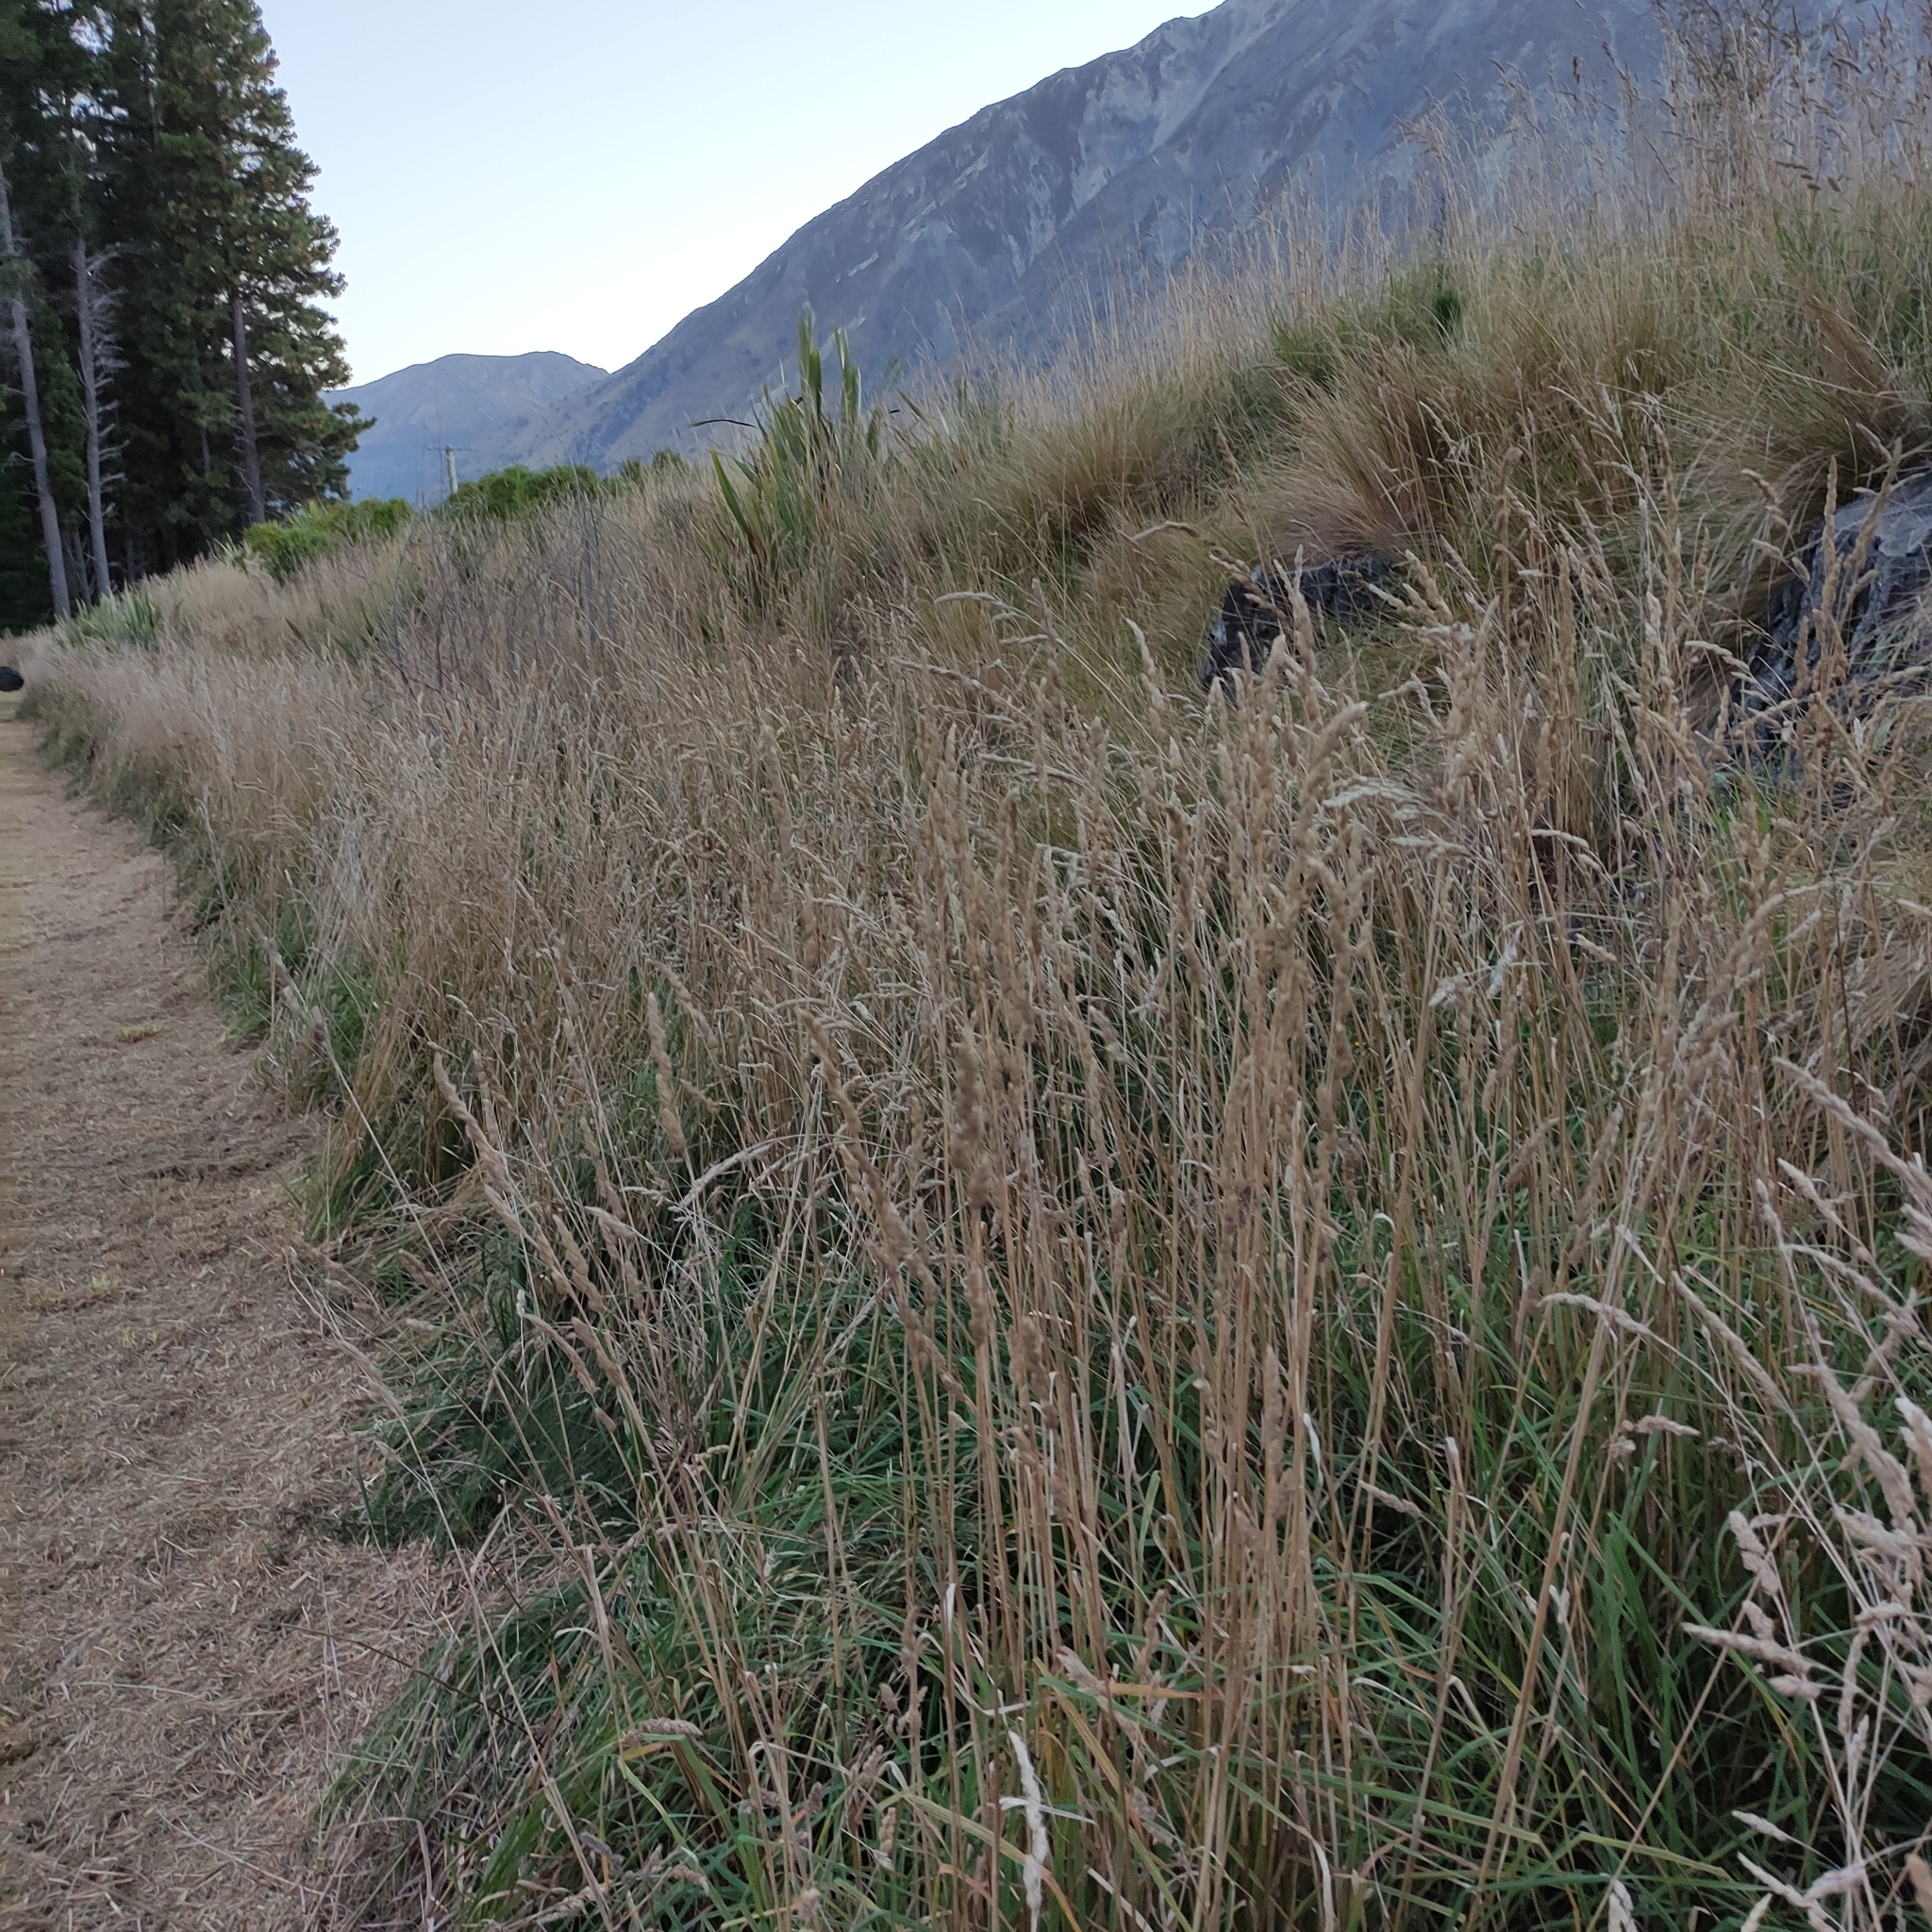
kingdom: Plantae
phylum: Tracheophyta
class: Liliopsida
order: Poales
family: Poaceae
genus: Dactylis
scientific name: Dactylis glomerata
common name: Orchardgrass
